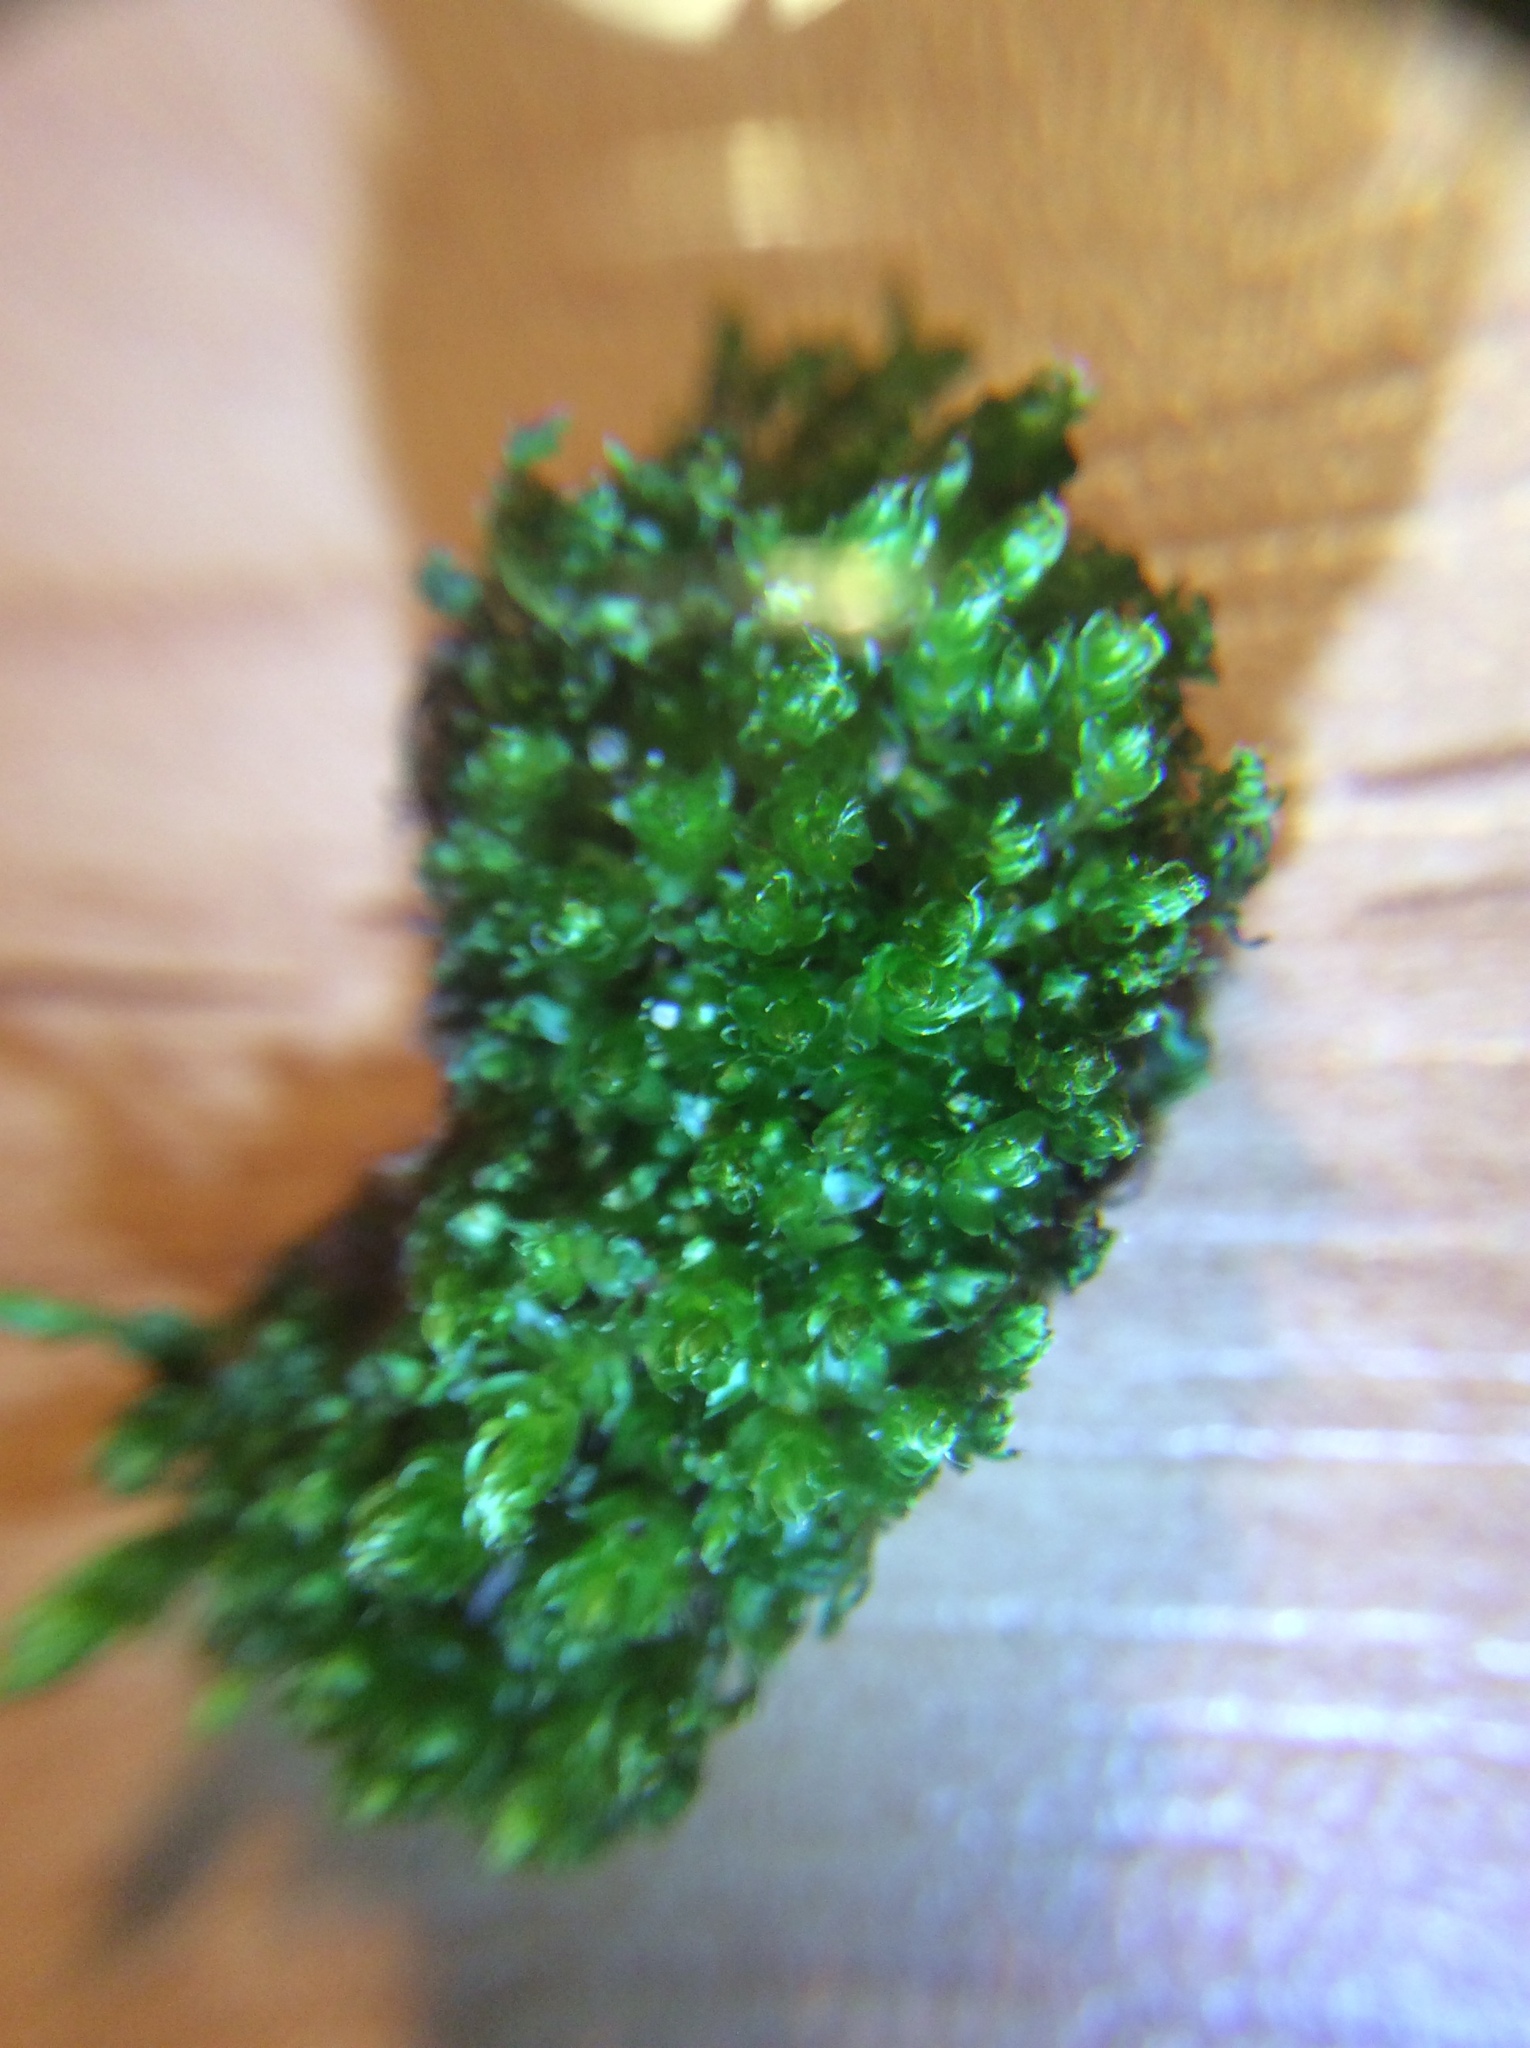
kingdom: Plantae
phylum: Bryophyta
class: Bryopsida
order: Bryales
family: Bryaceae
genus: Rosulabryum
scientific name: Rosulabryum capillare
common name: Capillary thread-moss
